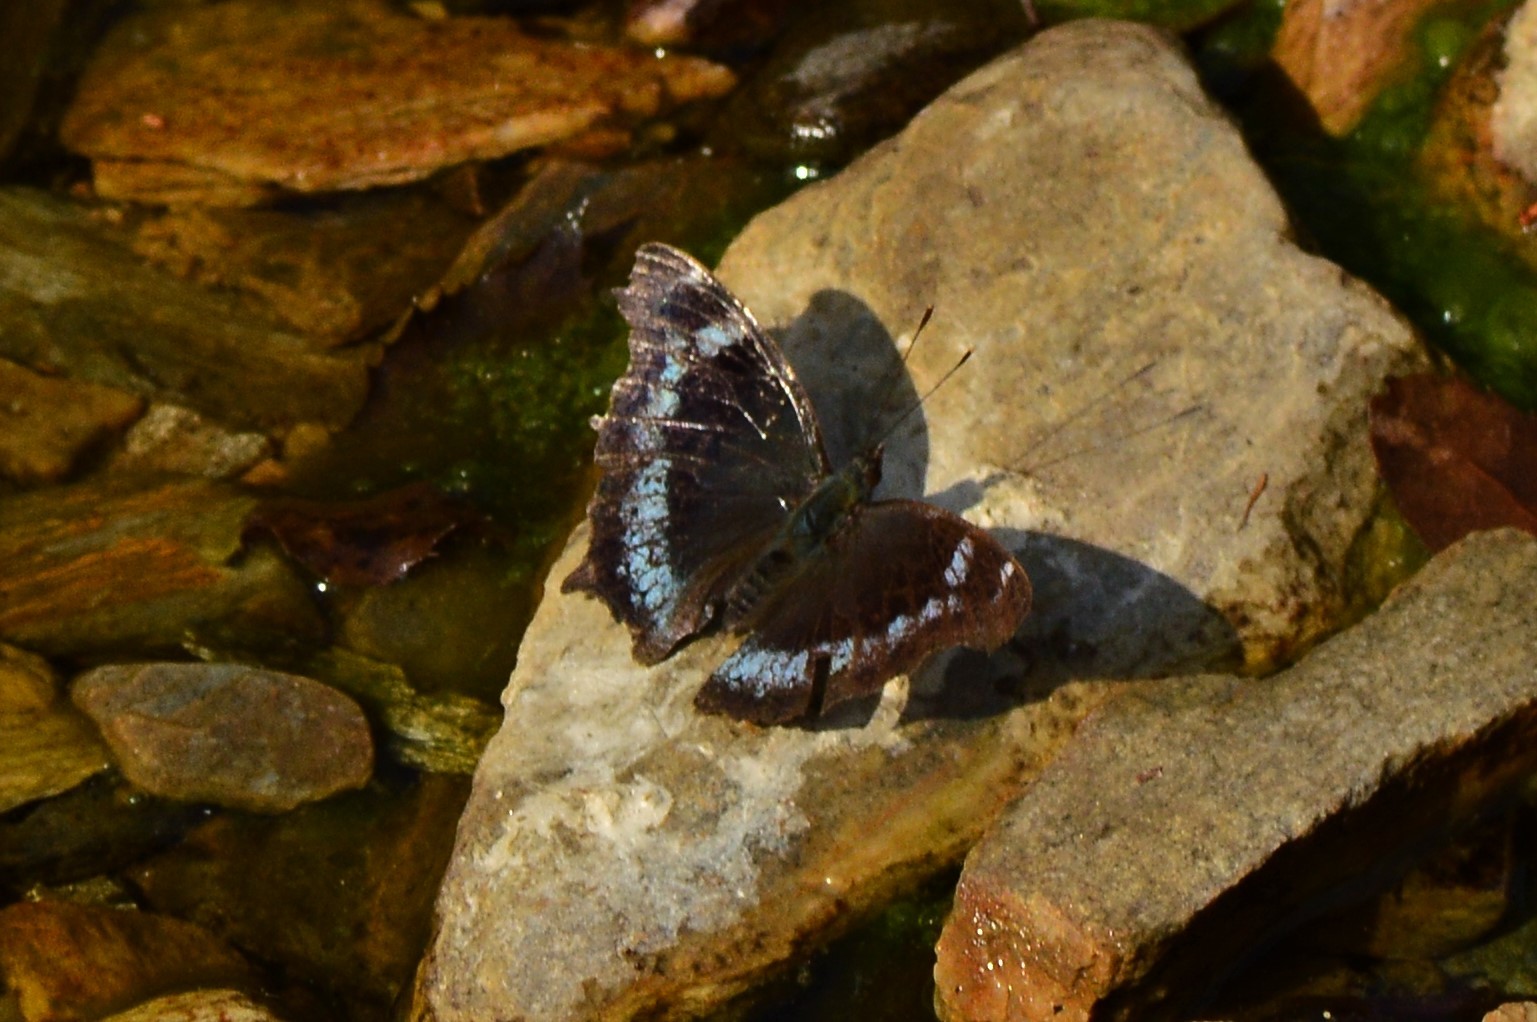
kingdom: Animalia
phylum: Arthropoda
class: Insecta
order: Lepidoptera
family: Nymphalidae
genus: Vanessa
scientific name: Vanessa Kaniska canace
